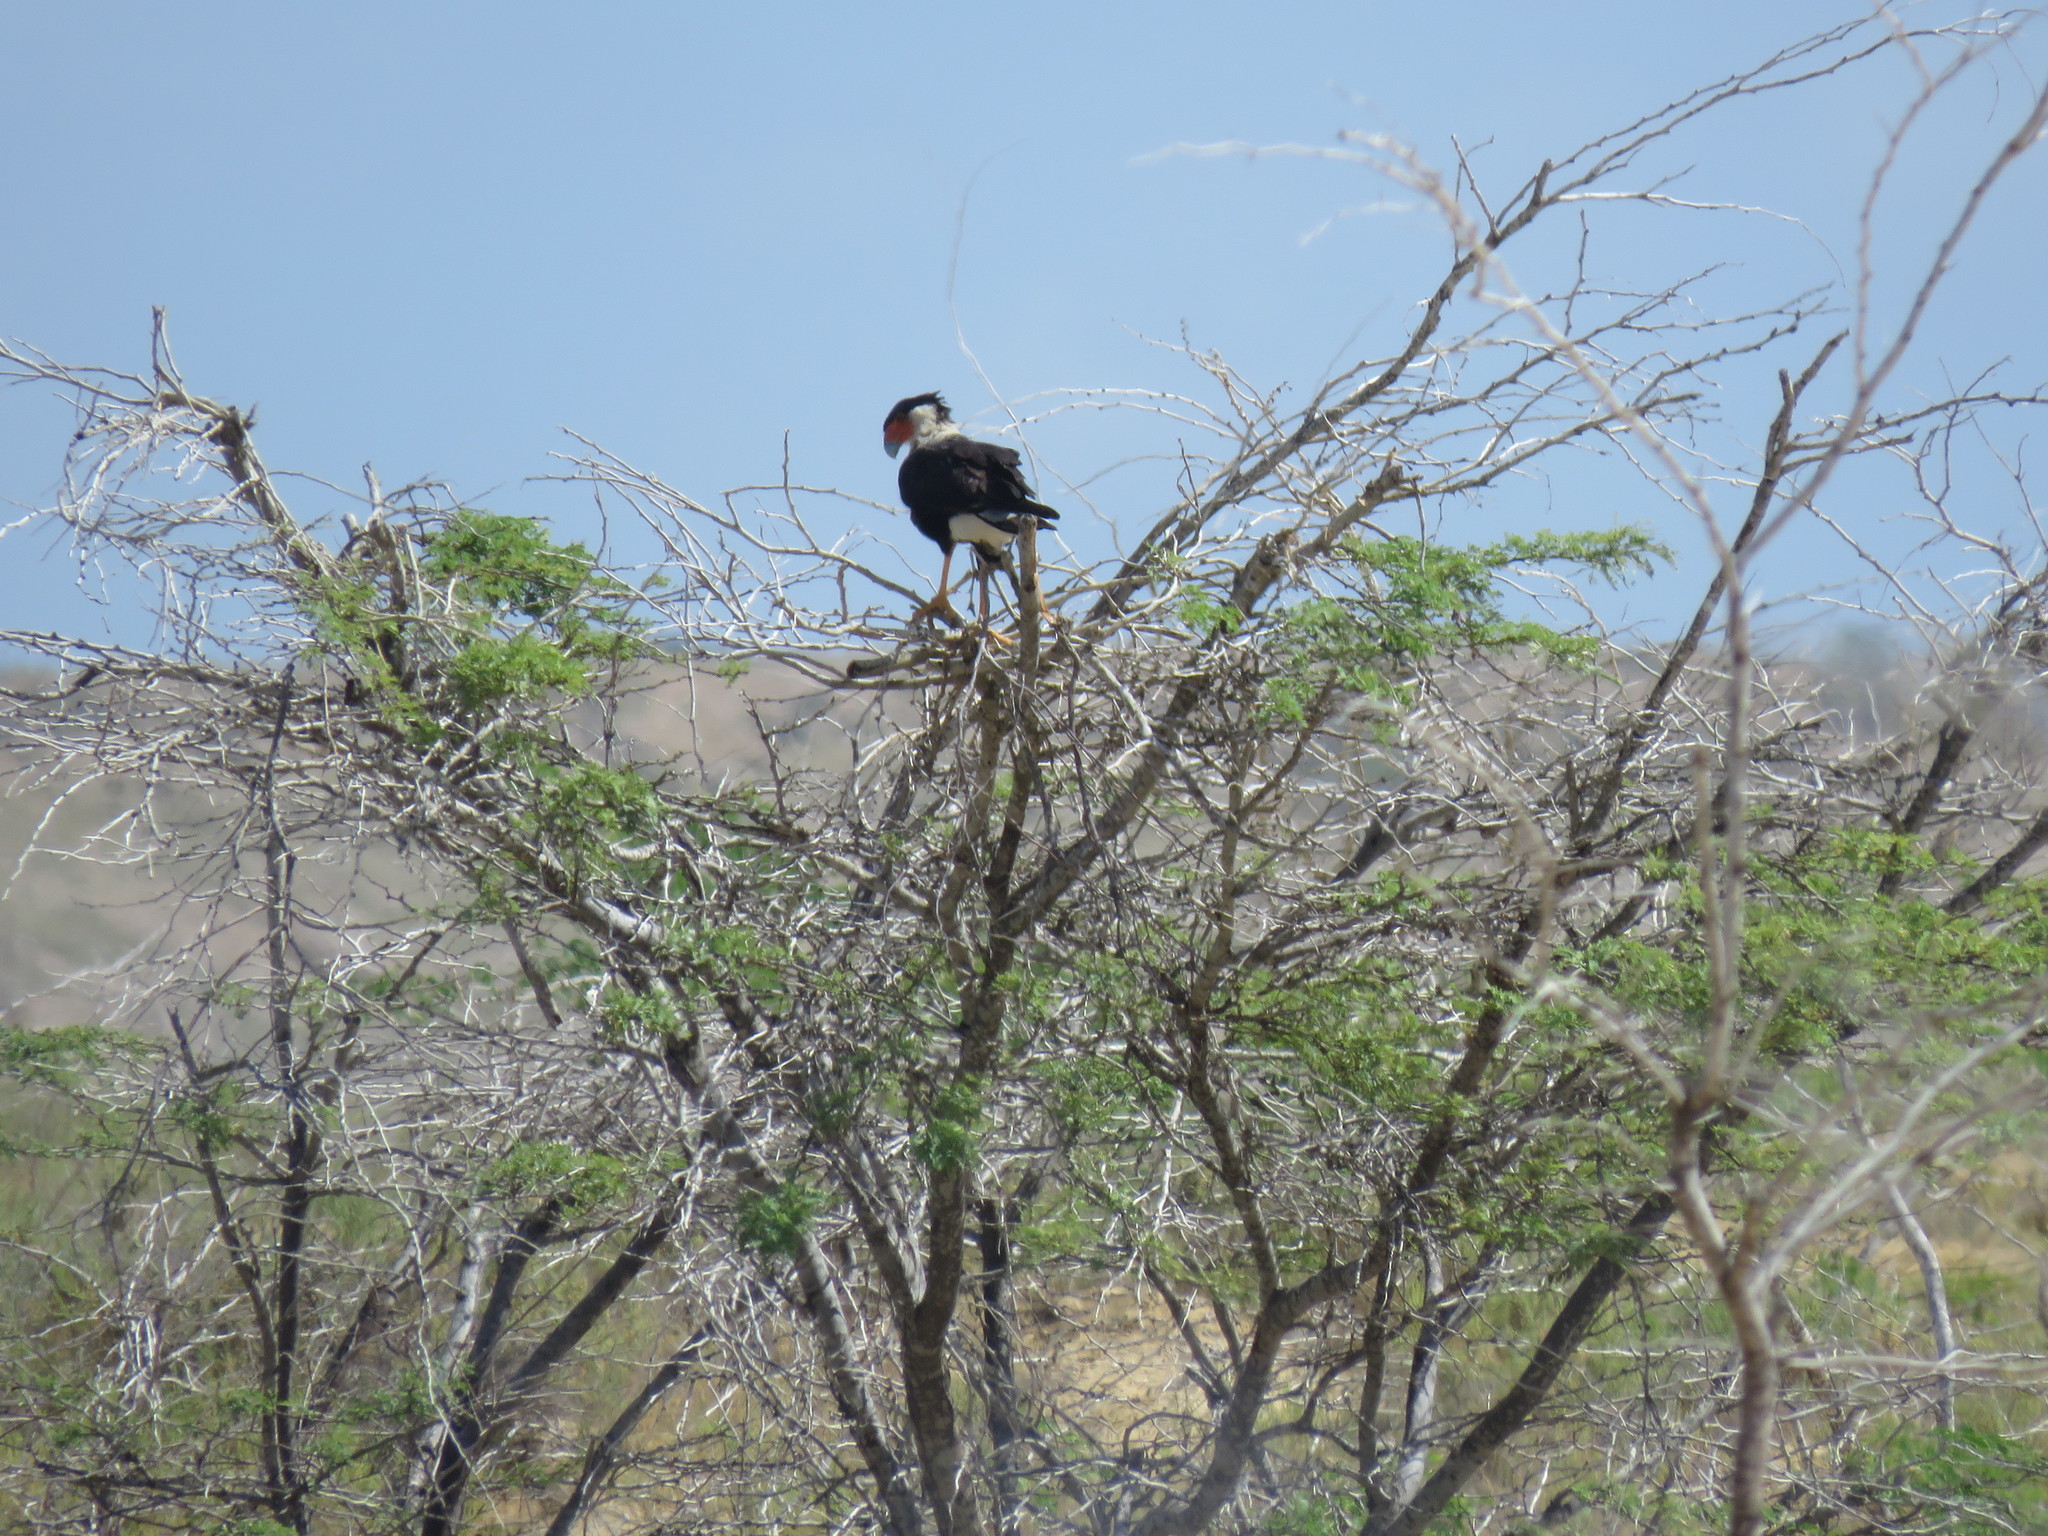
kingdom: Animalia
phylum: Chordata
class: Aves
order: Falconiformes
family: Falconidae
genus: Caracara
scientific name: Caracara plancus
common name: Southern caracara
